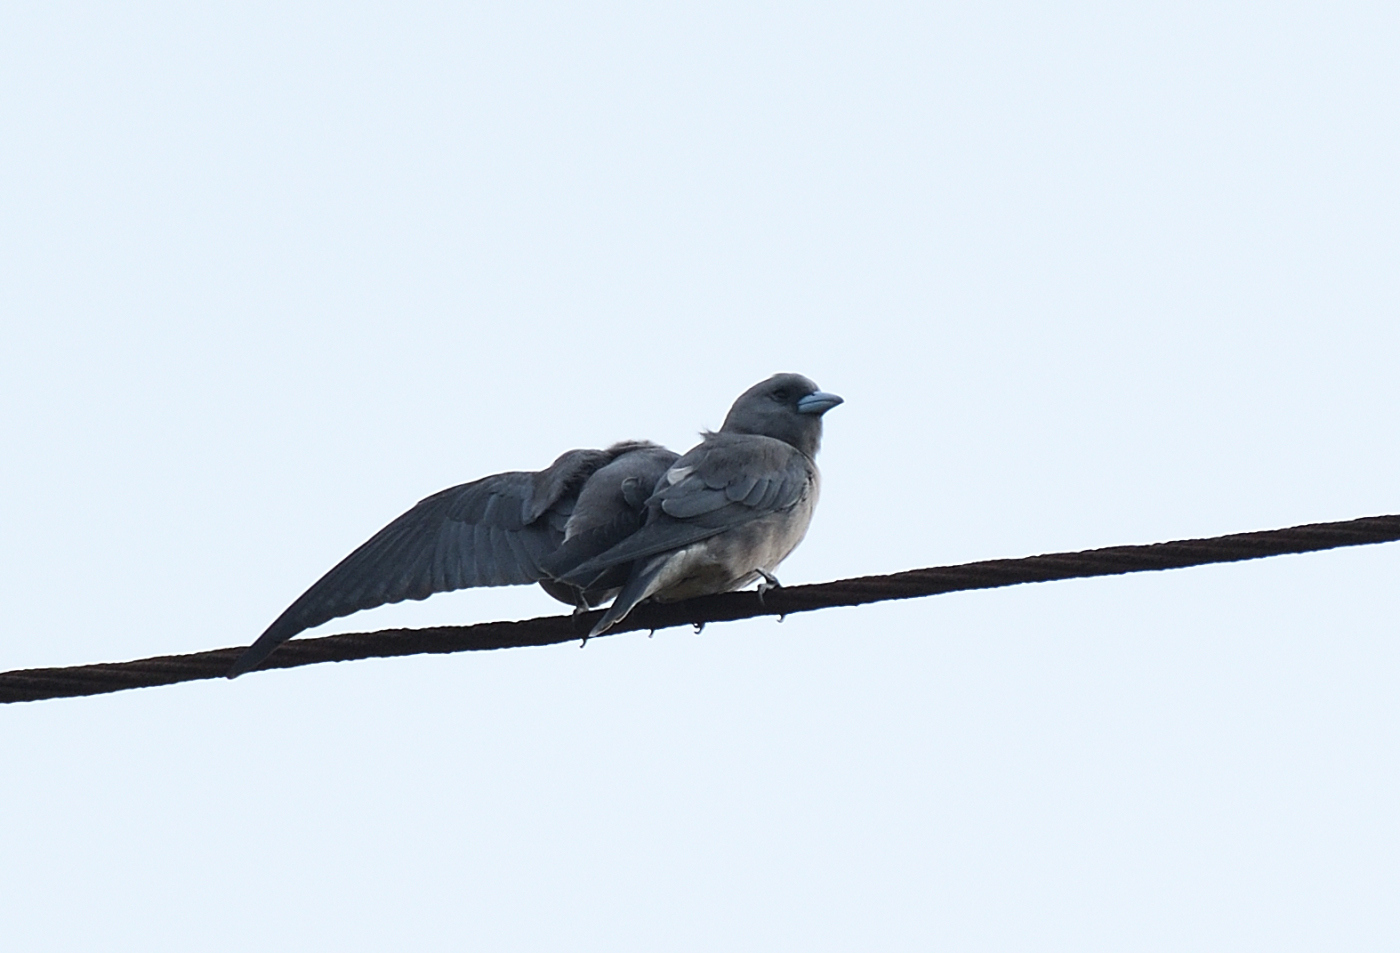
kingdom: Animalia
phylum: Chordata
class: Aves
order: Passeriformes
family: Artamidae
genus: Artamus
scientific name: Artamus fuscus
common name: Ashy woodswallow
